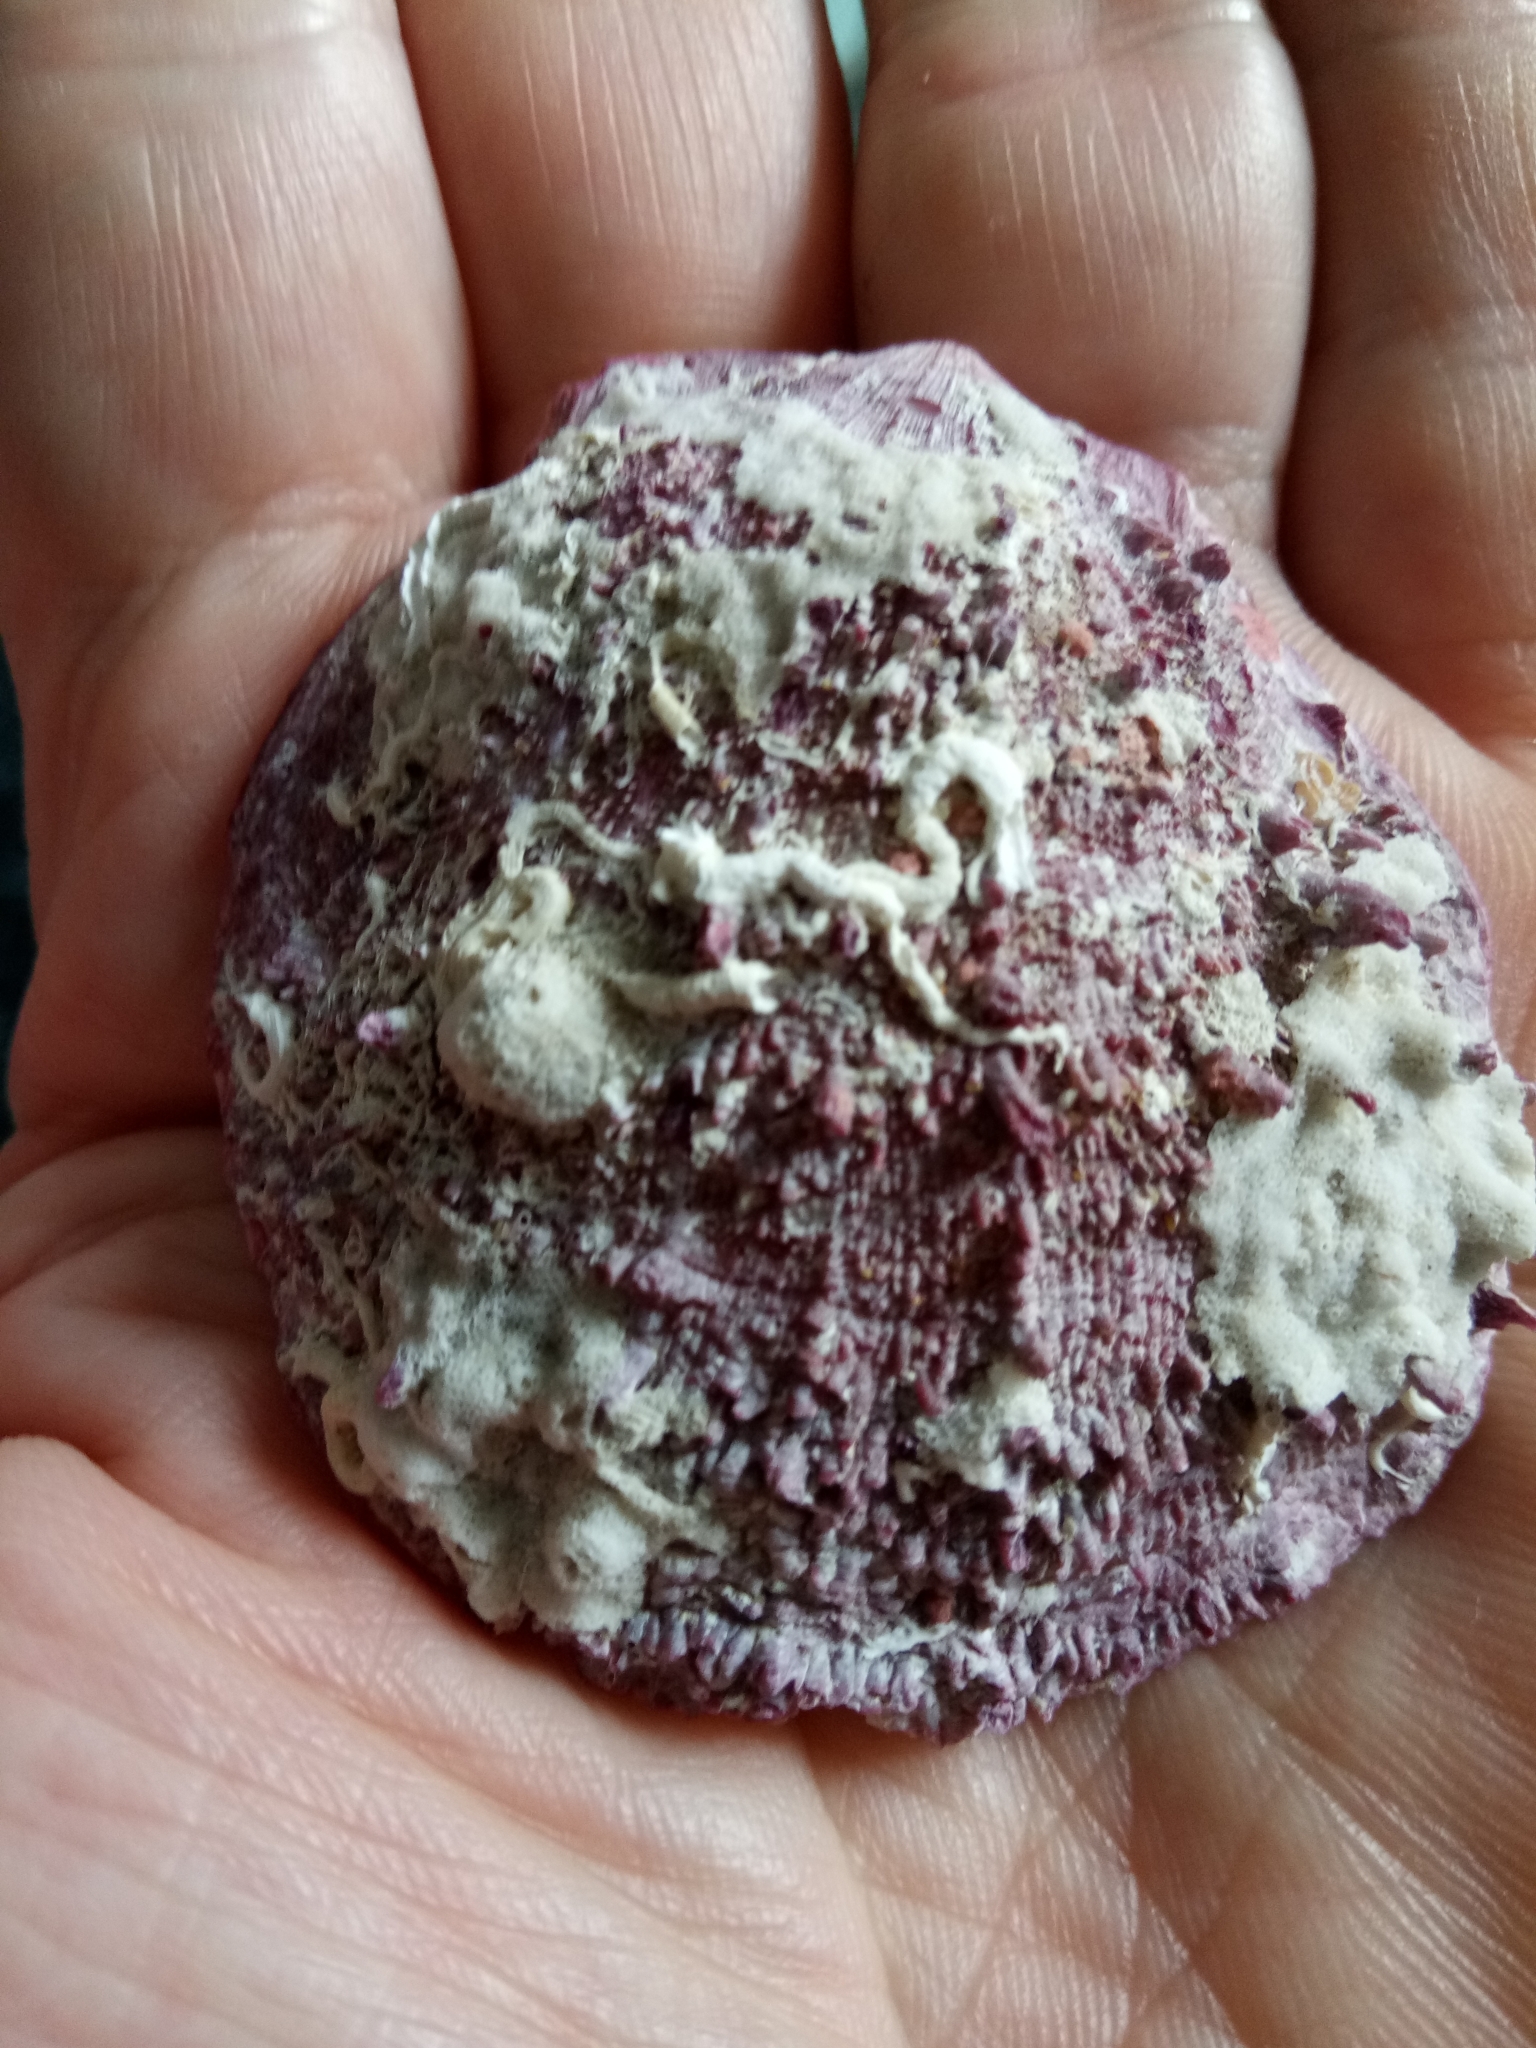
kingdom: Animalia
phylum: Mollusca
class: Bivalvia
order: Pectinida
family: Spondylidae
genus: Spondylus
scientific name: Spondylus gaederopus
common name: European thorny oyster
